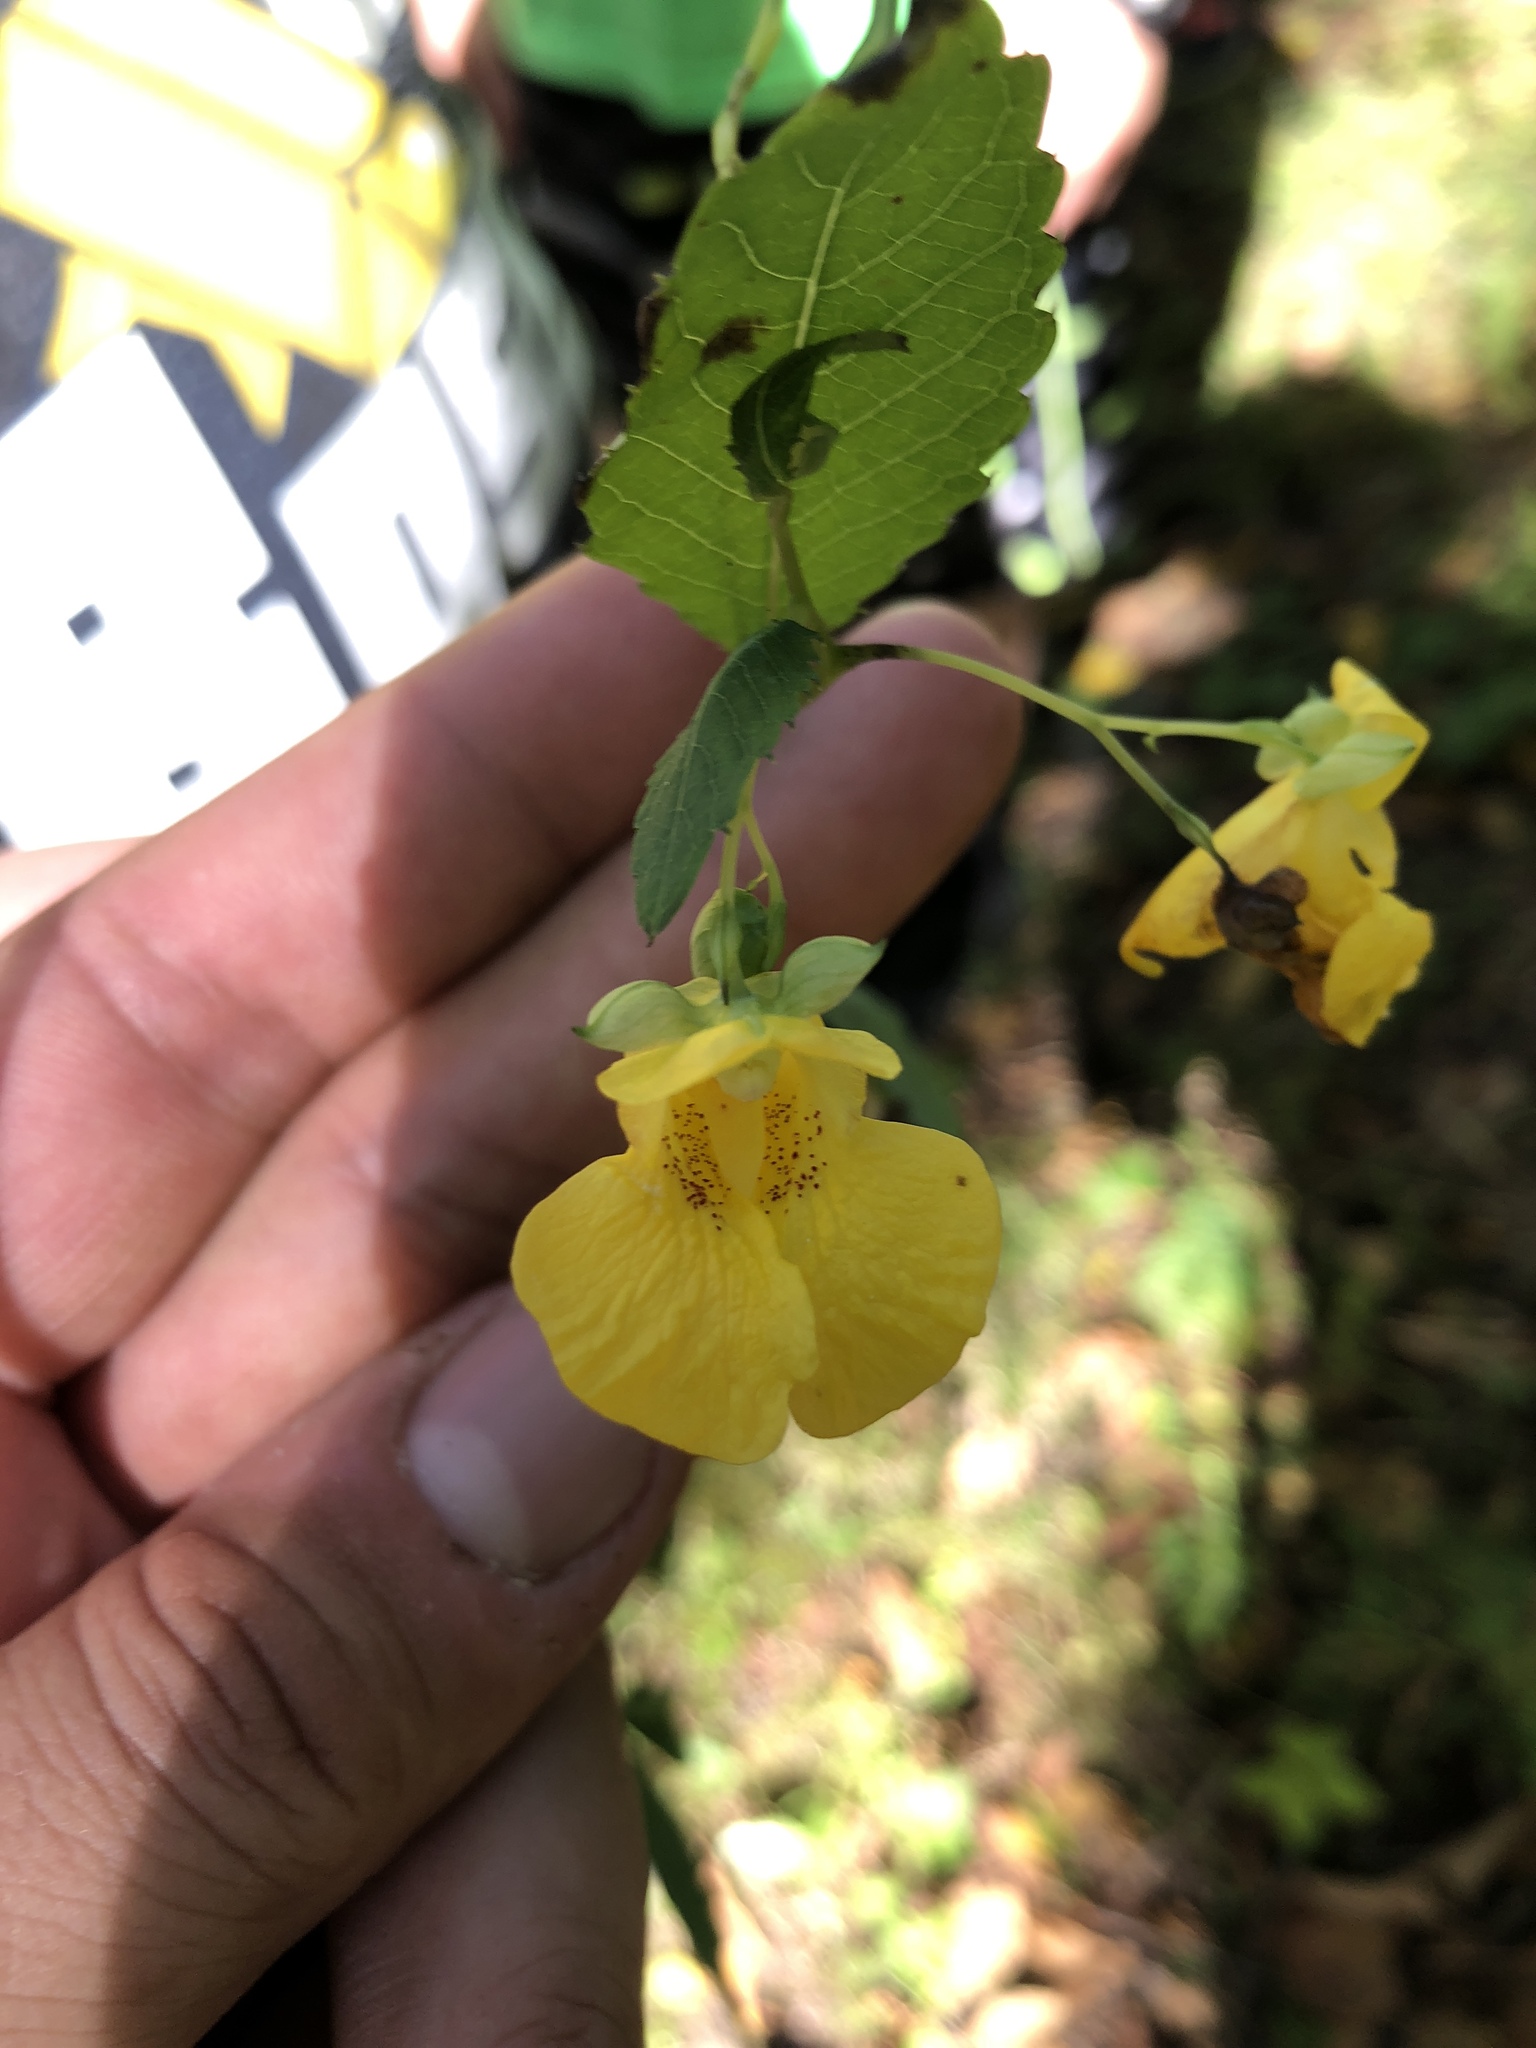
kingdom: Plantae
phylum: Tracheophyta
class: Magnoliopsida
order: Ericales
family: Balsaminaceae
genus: Impatiens
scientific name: Impatiens pallida
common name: Pale snapweed
